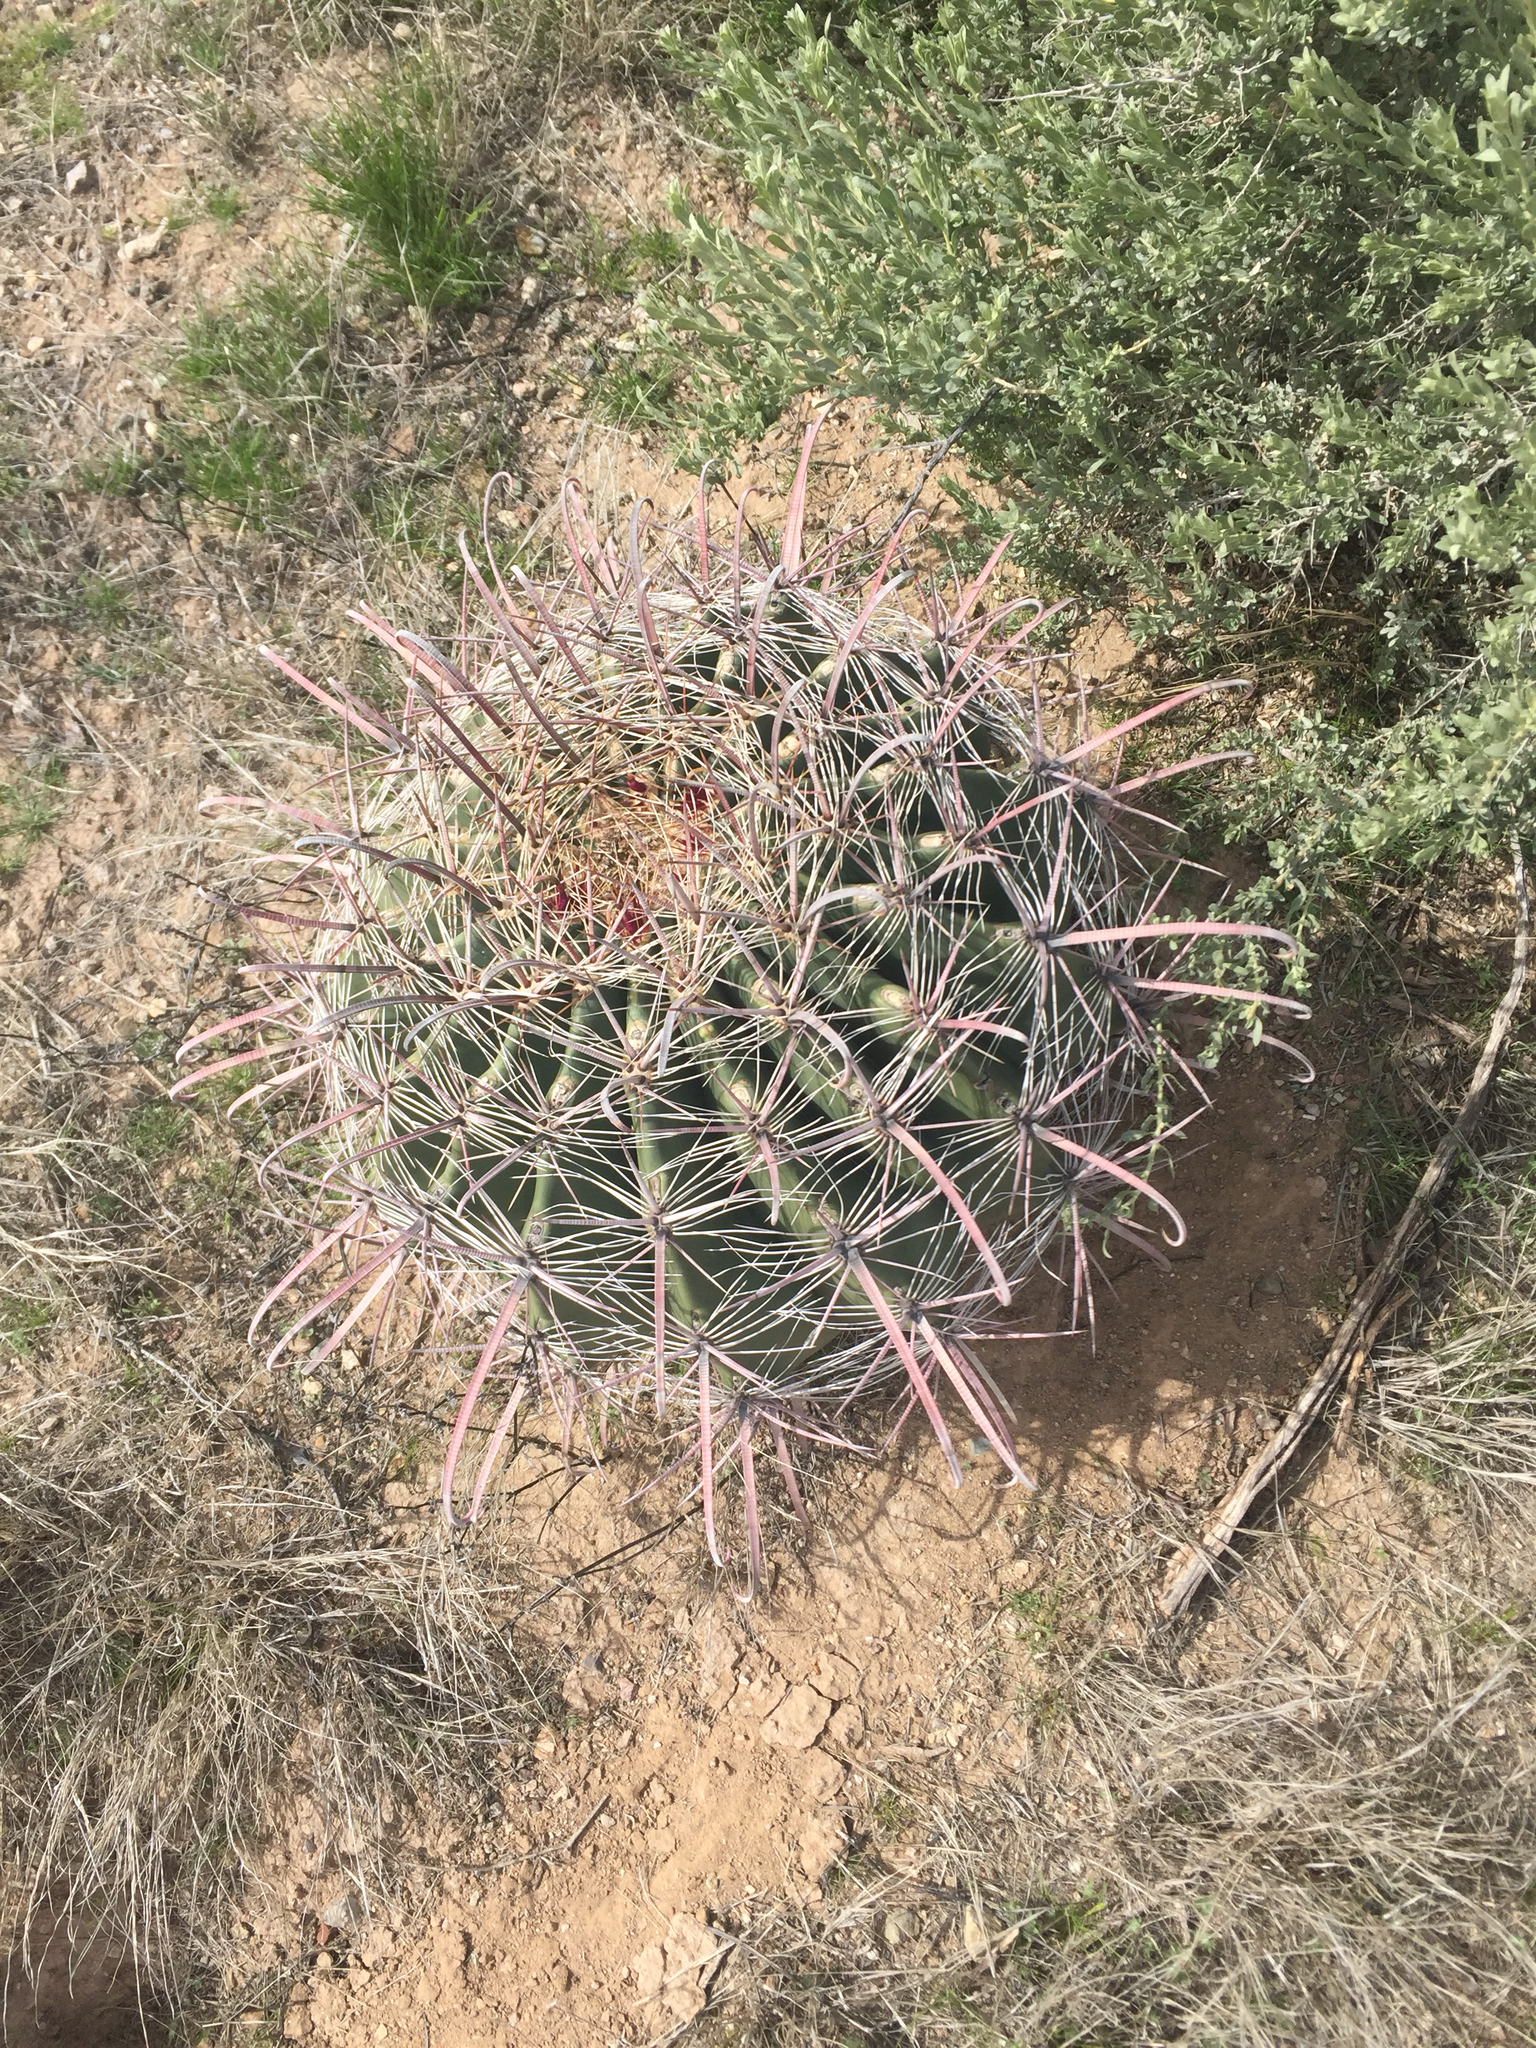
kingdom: Plantae
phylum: Tracheophyta
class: Magnoliopsida
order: Caryophyllales
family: Cactaceae
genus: Ferocactus
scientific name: Ferocactus wislizeni
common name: Candy barrel cactus
